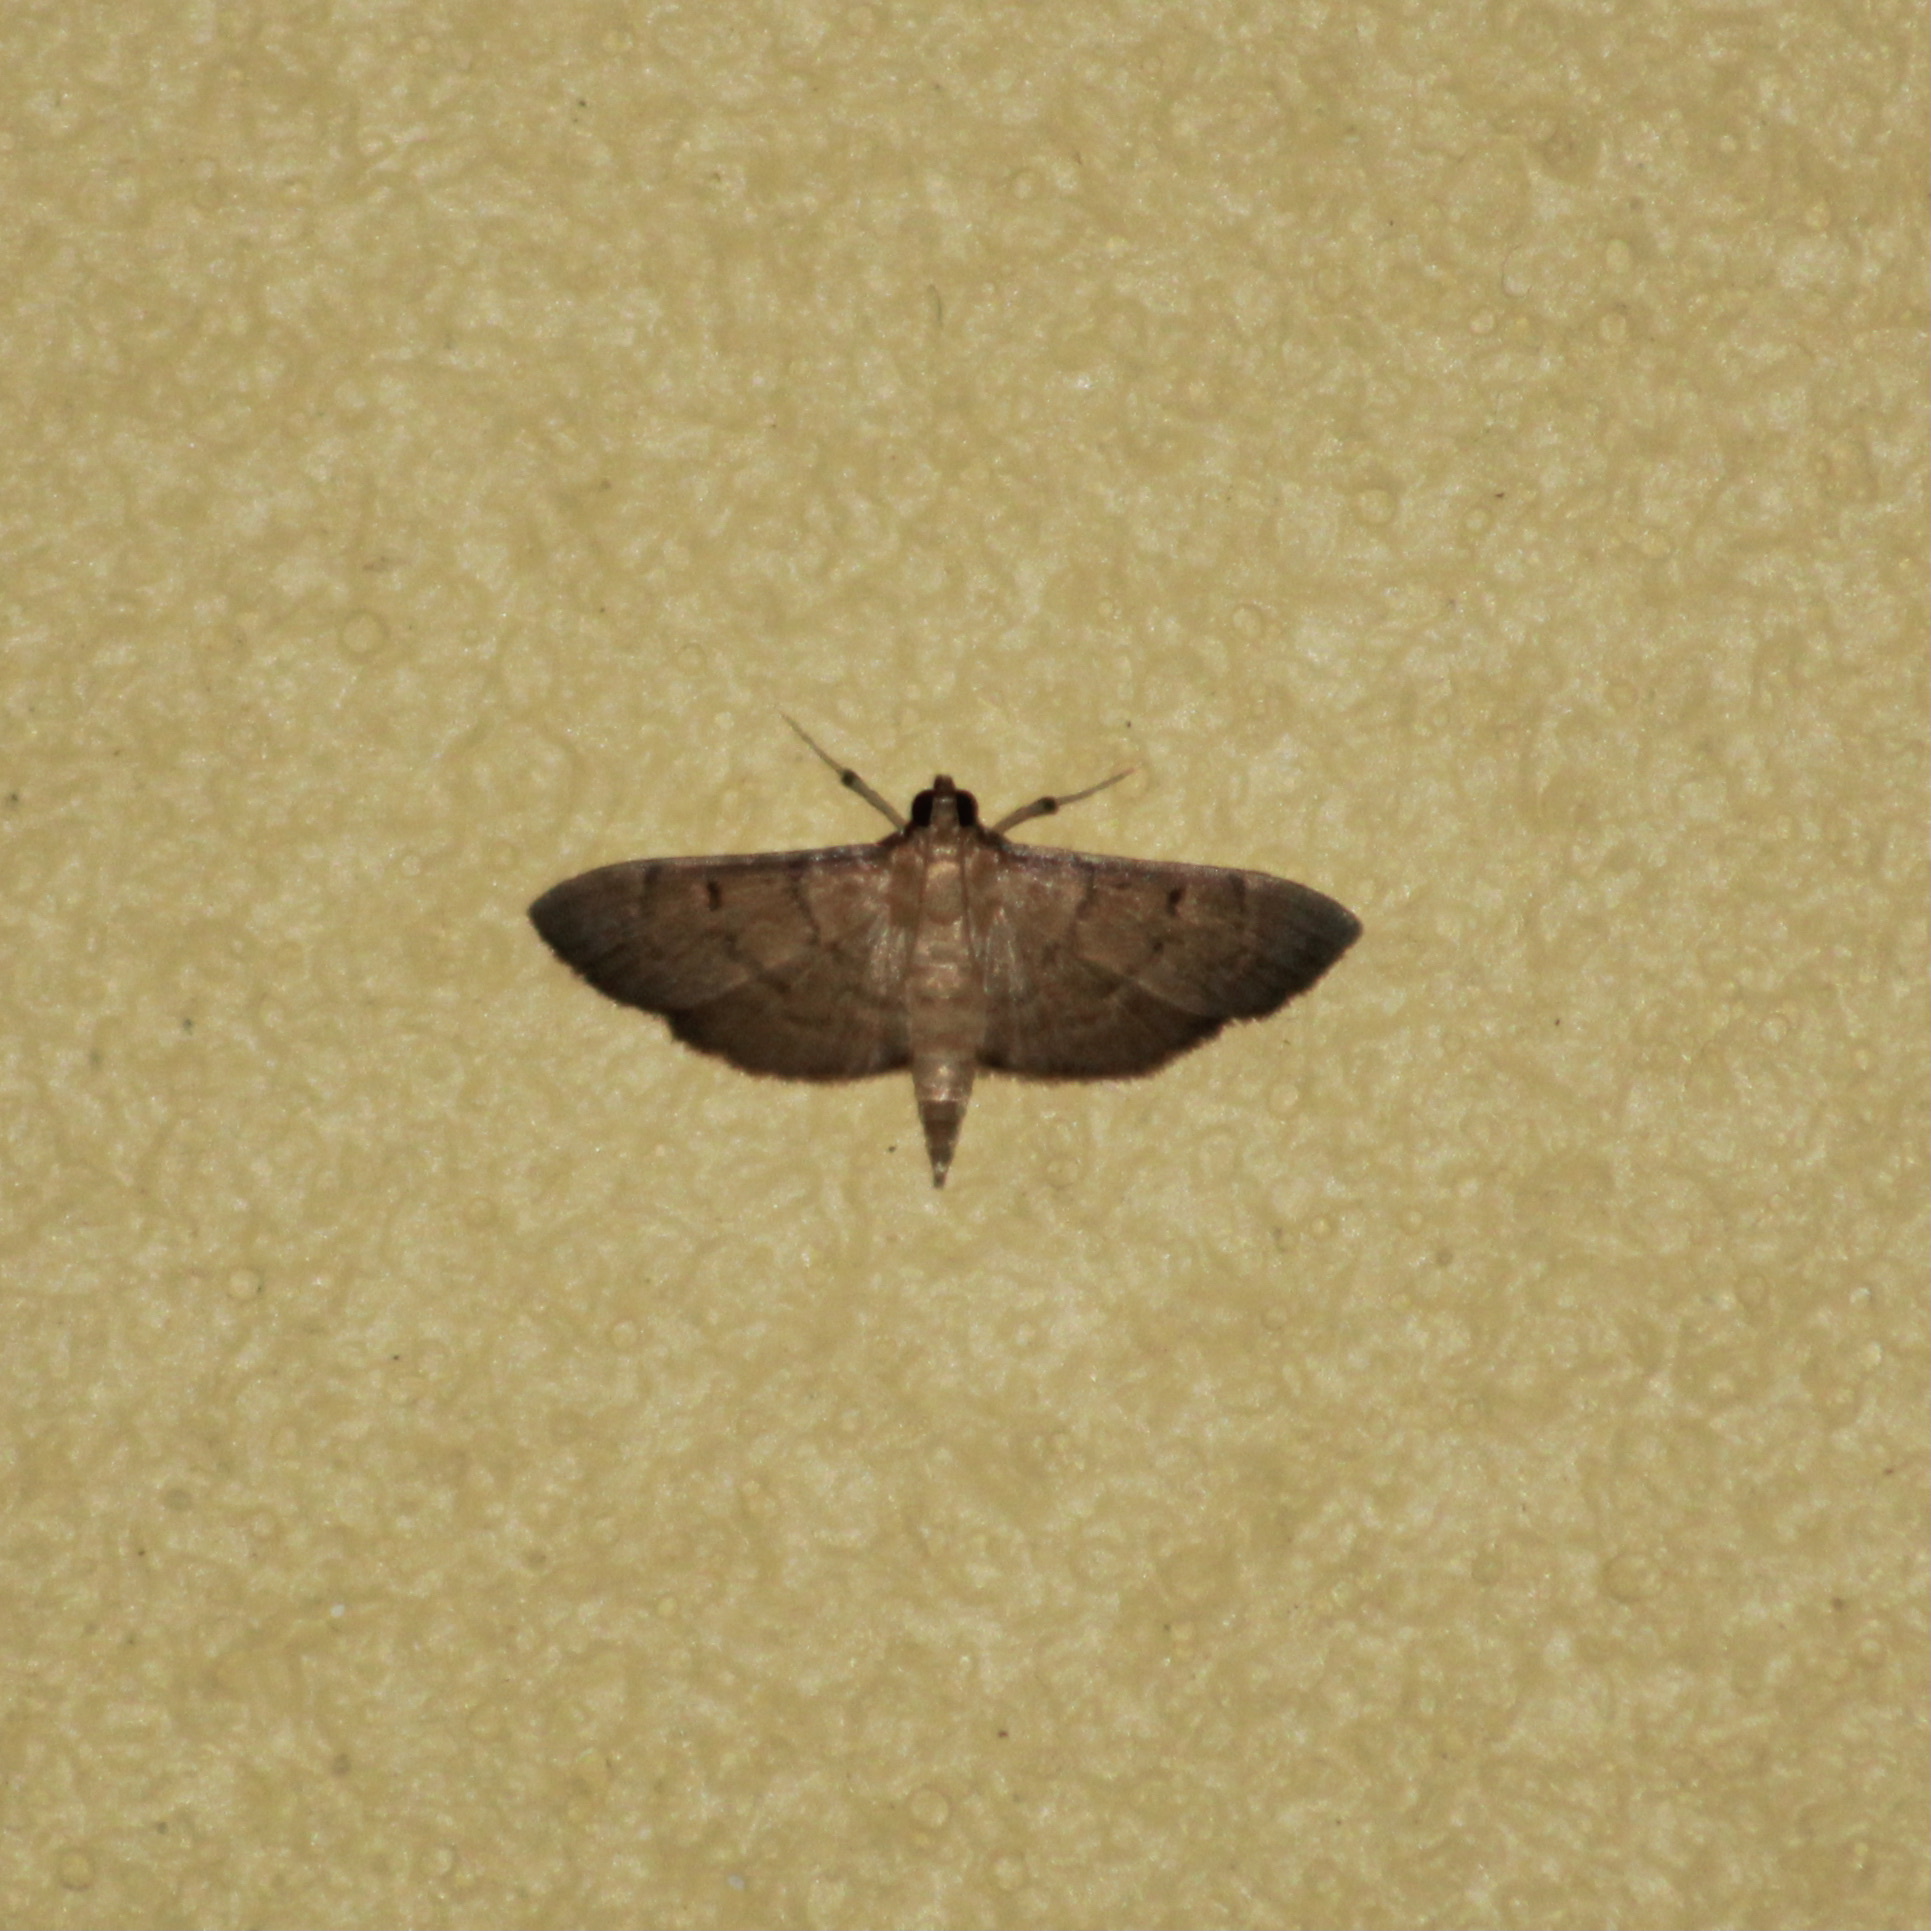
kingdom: Animalia
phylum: Arthropoda
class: Insecta
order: Lepidoptera
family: Crambidae
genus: Herpetogramma
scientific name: Herpetogramma phaeopteralis
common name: Dusky herpetogramma moth
